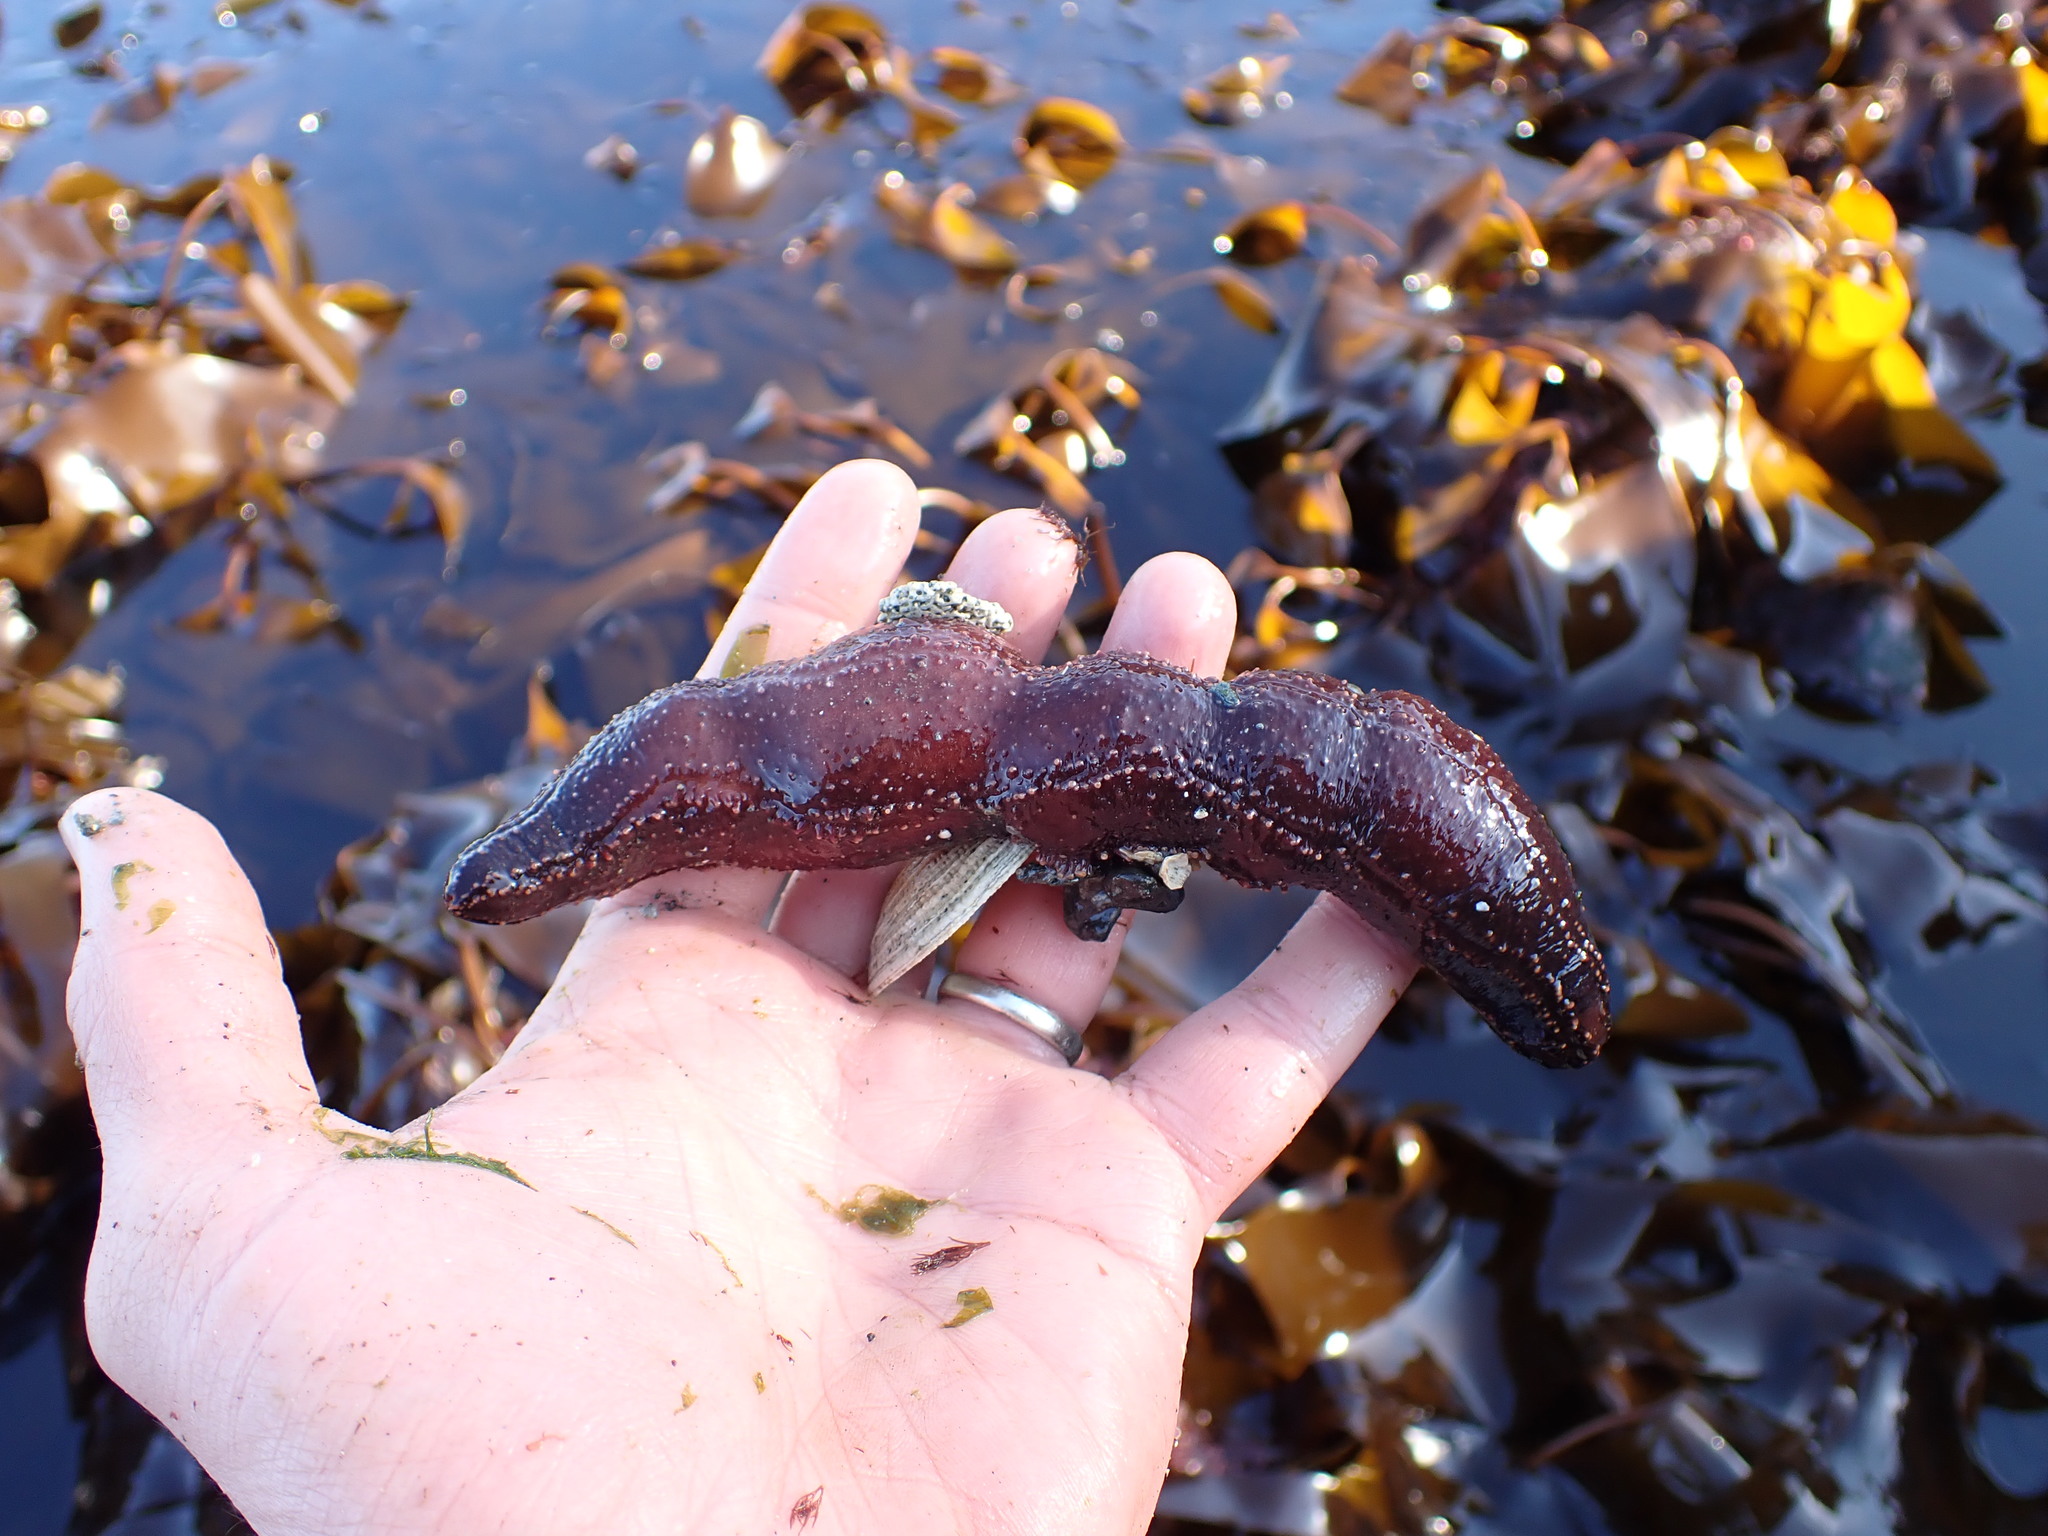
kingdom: Animalia
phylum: Echinodermata
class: Holothuroidea
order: Dendrochirotida
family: Cucumariidae
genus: Cucumaria
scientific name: Cucumaria miniata
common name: Orange sea cucumber
